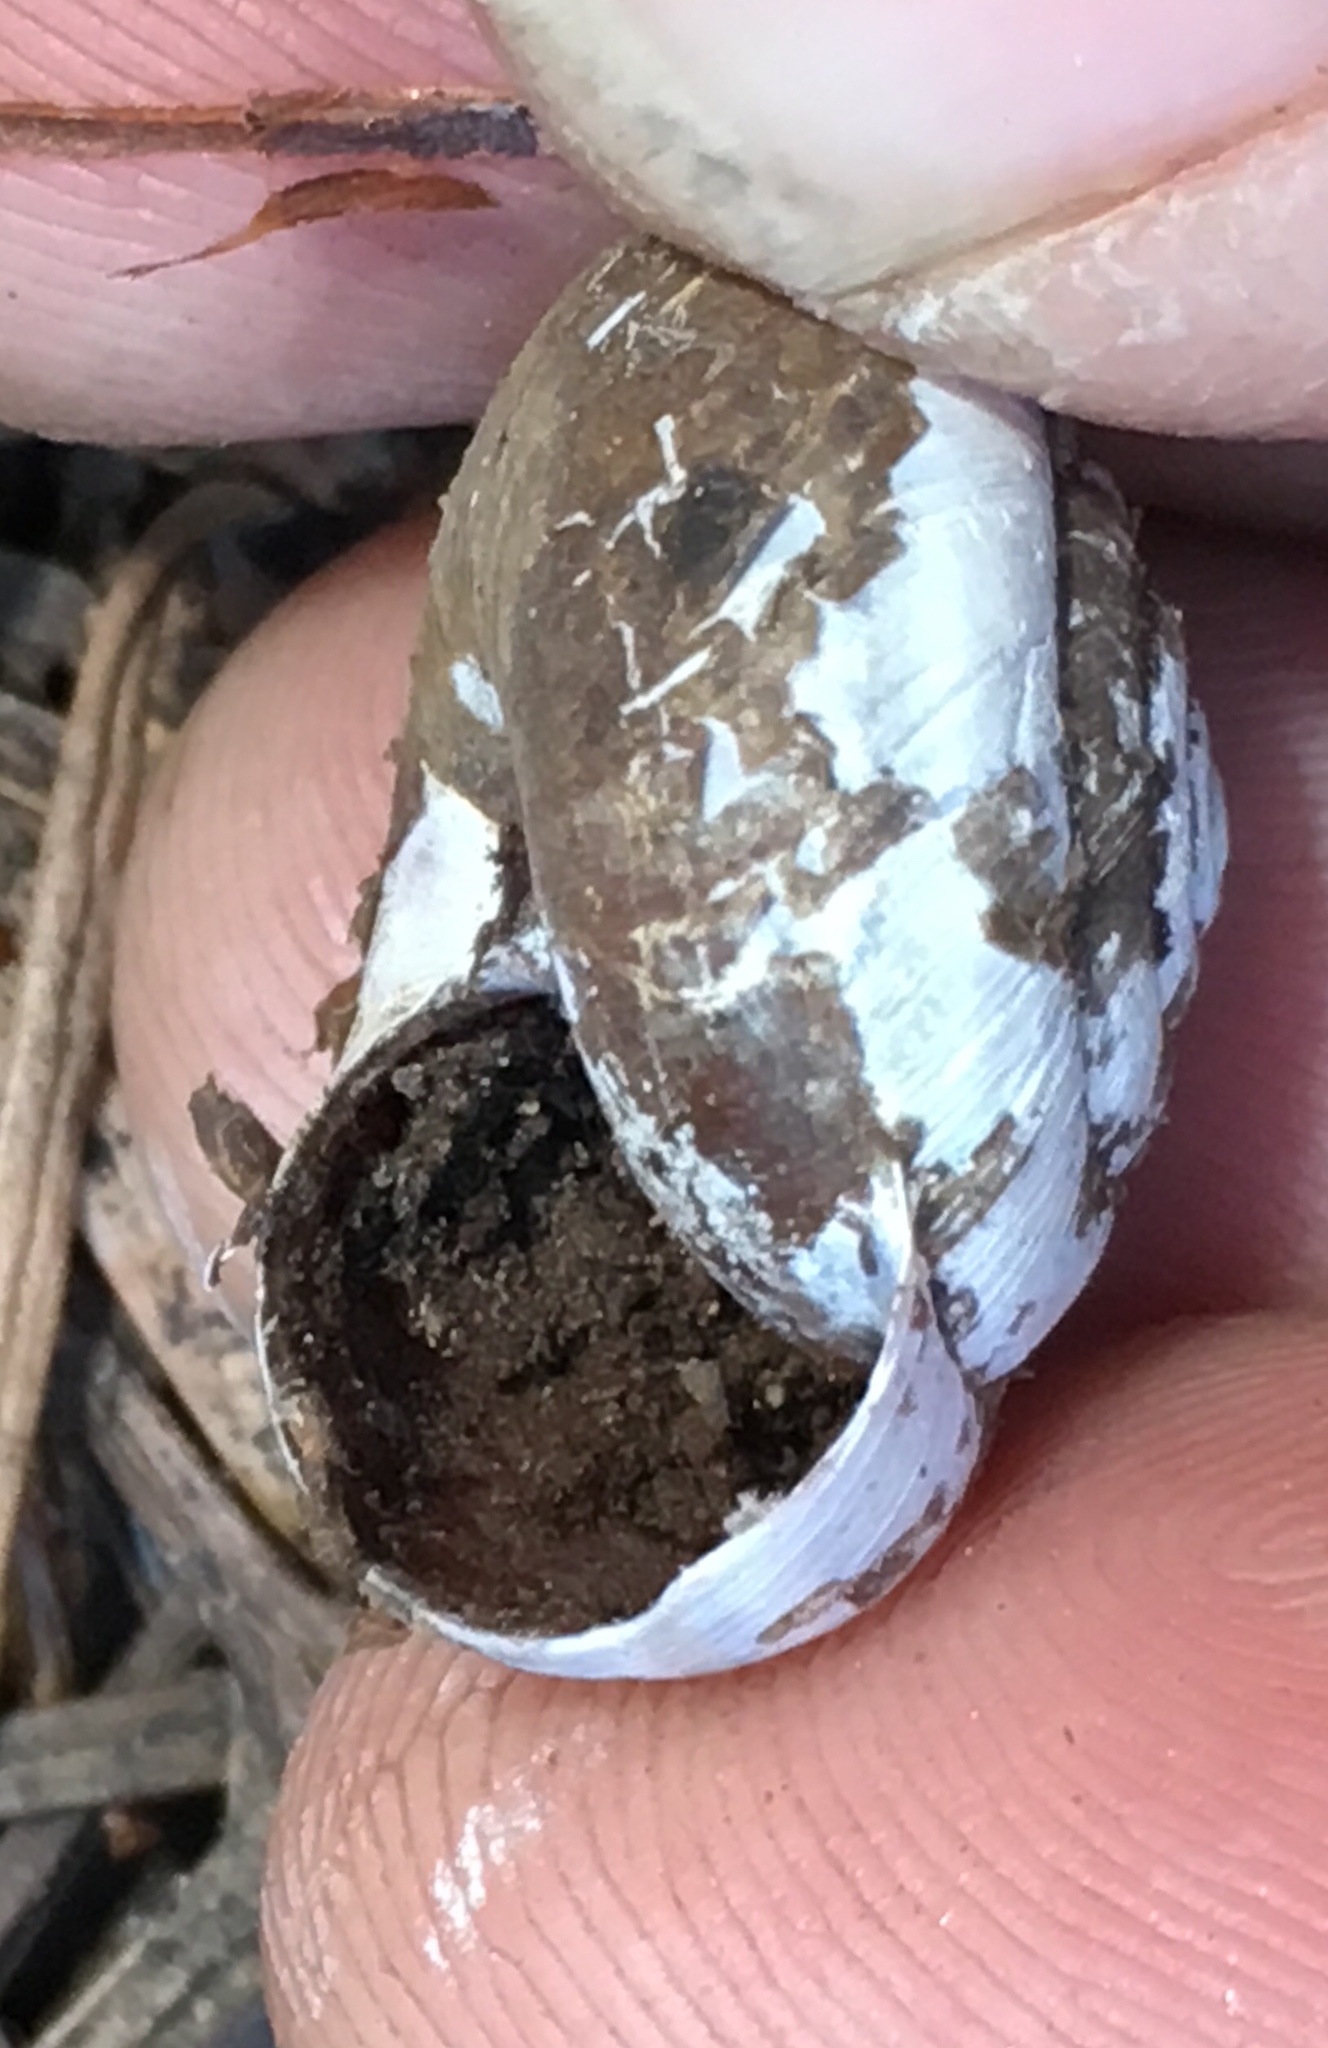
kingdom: Animalia
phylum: Mollusca
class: Gastropoda
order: Stylommatophora
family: Xanthonychidae
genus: Helminthoglypta
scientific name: Helminthoglypta cypreophila
